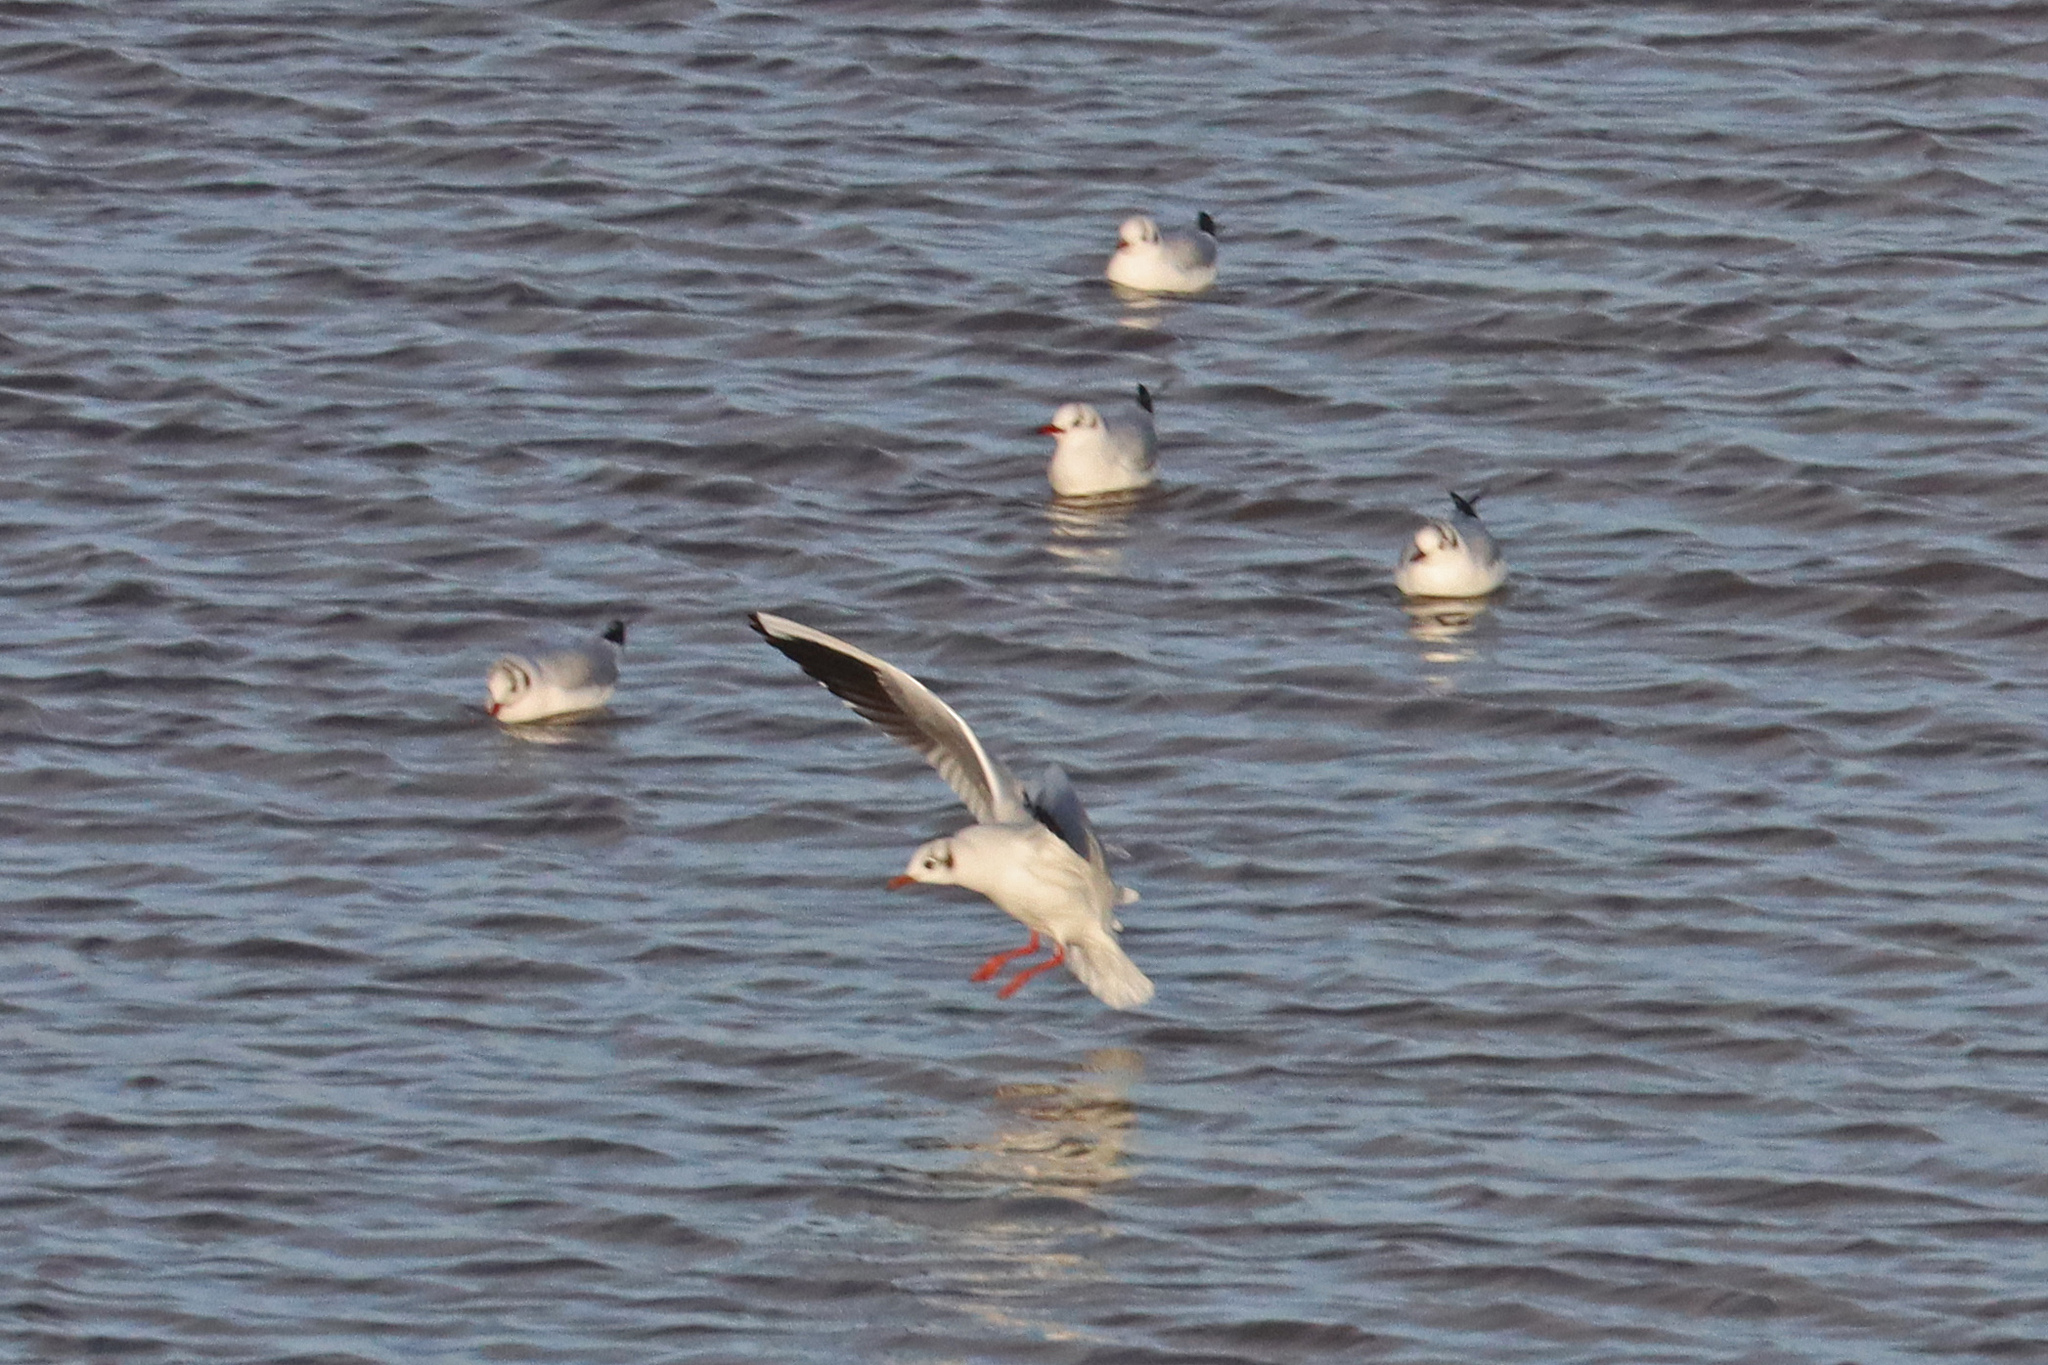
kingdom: Animalia
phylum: Chordata
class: Aves
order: Charadriiformes
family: Laridae
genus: Chroicocephalus
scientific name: Chroicocephalus ridibundus
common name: Black-headed gull
